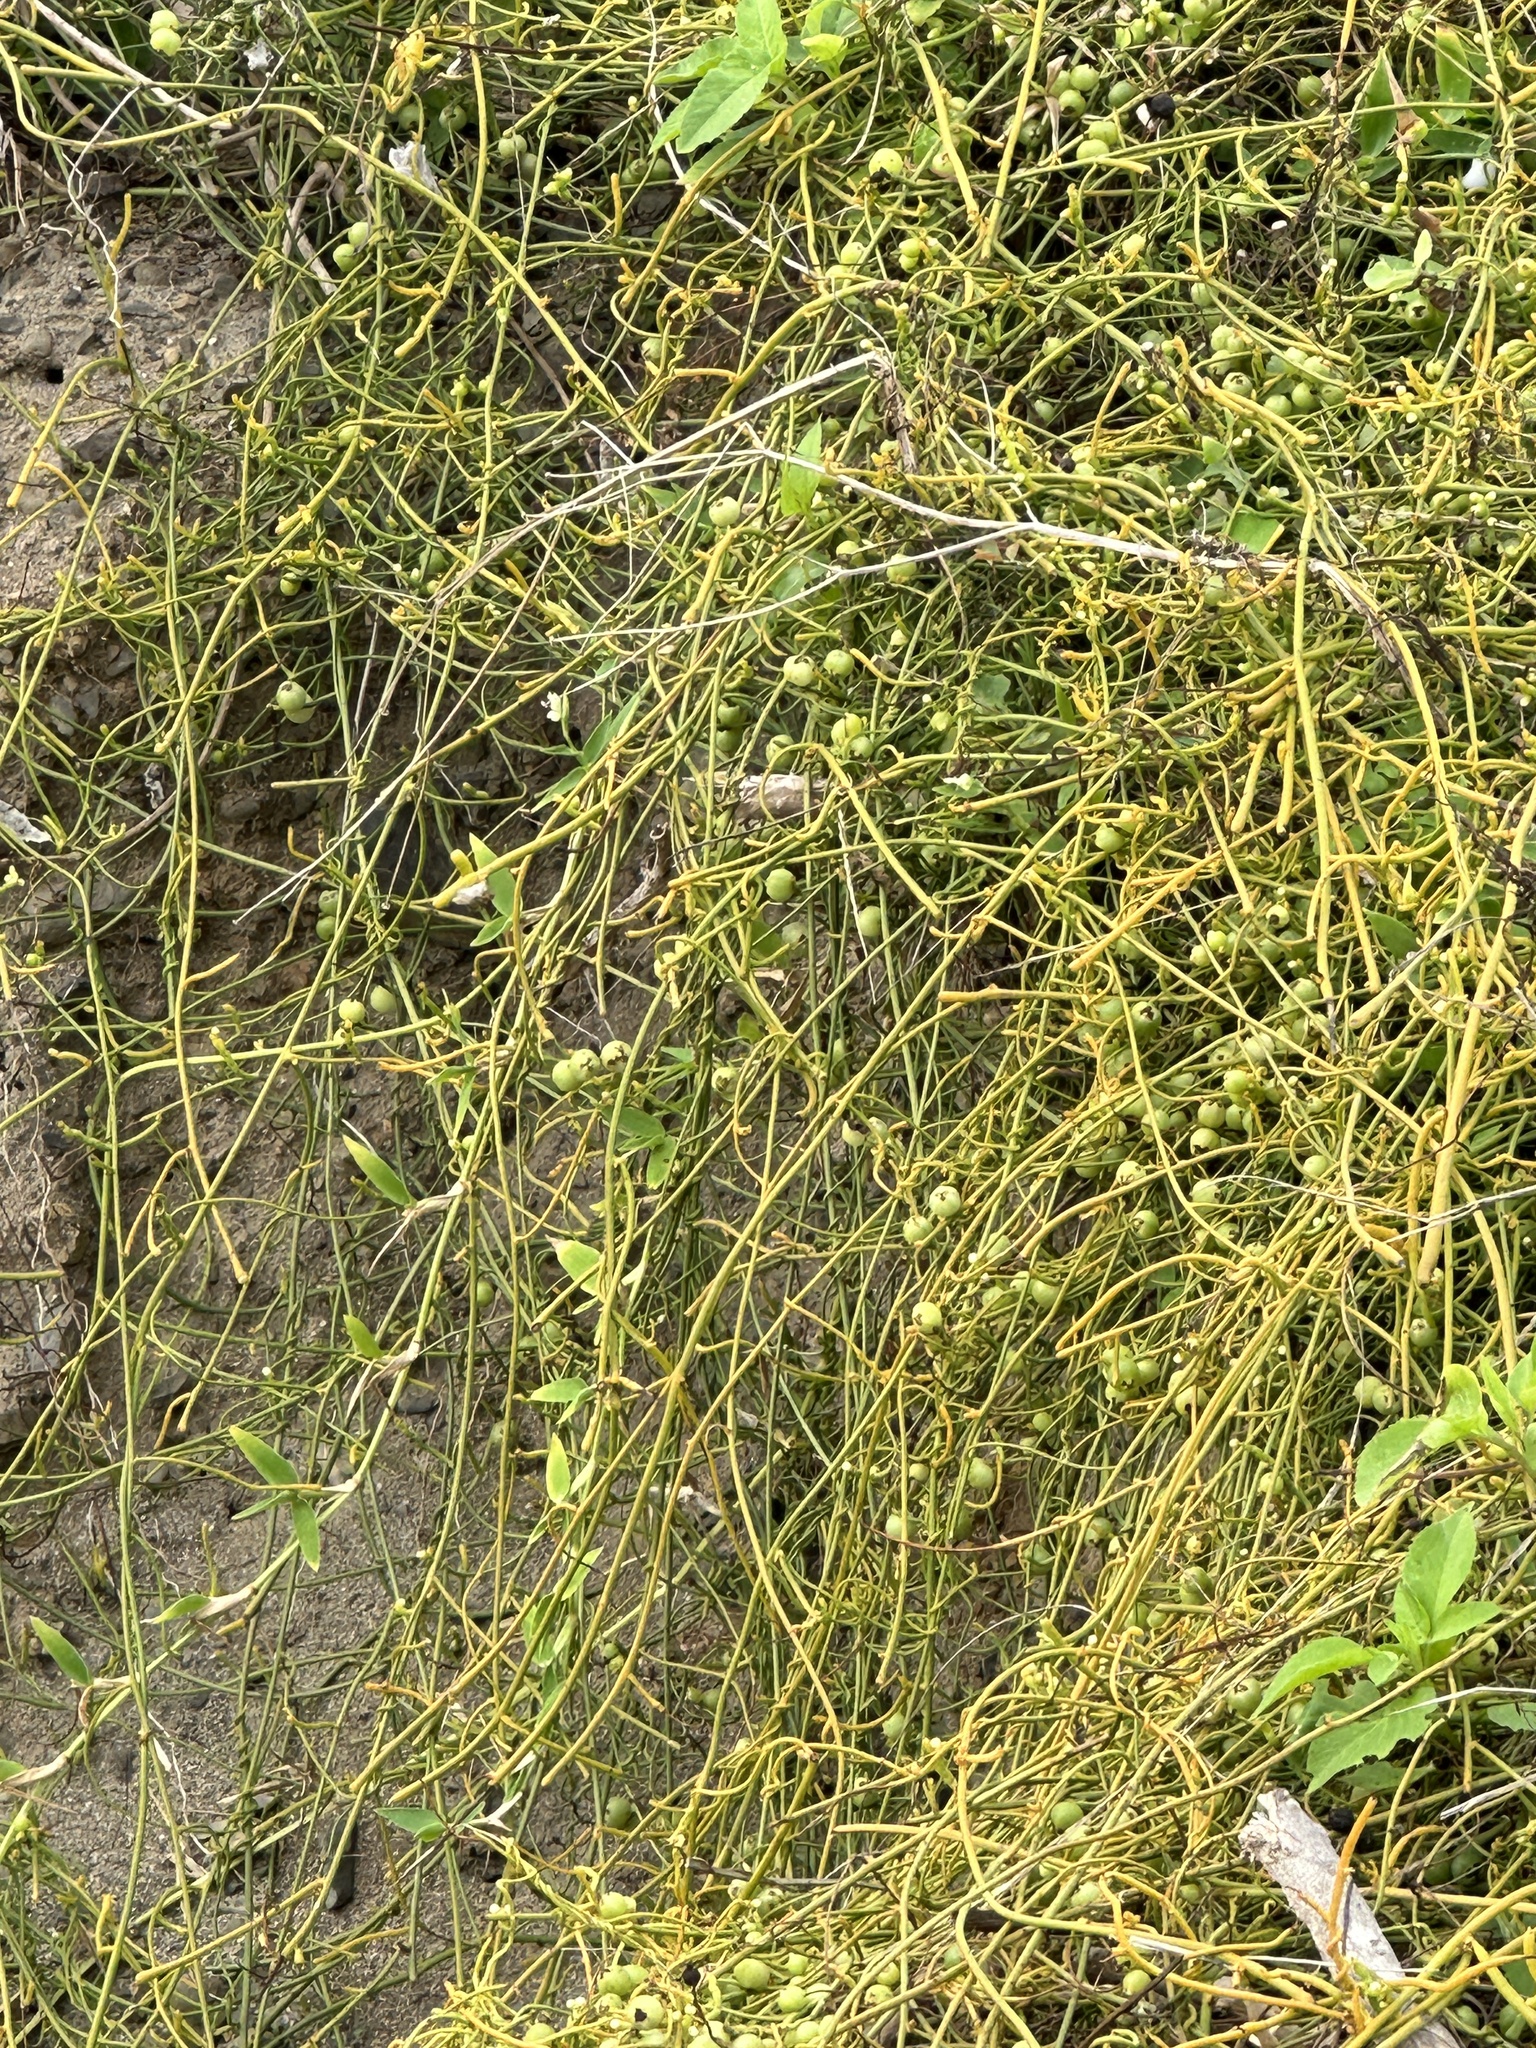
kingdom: Plantae
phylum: Tracheophyta
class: Magnoliopsida
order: Laurales
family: Lauraceae
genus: Cassytha
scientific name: Cassytha filiformis
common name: Dodder-laurel
